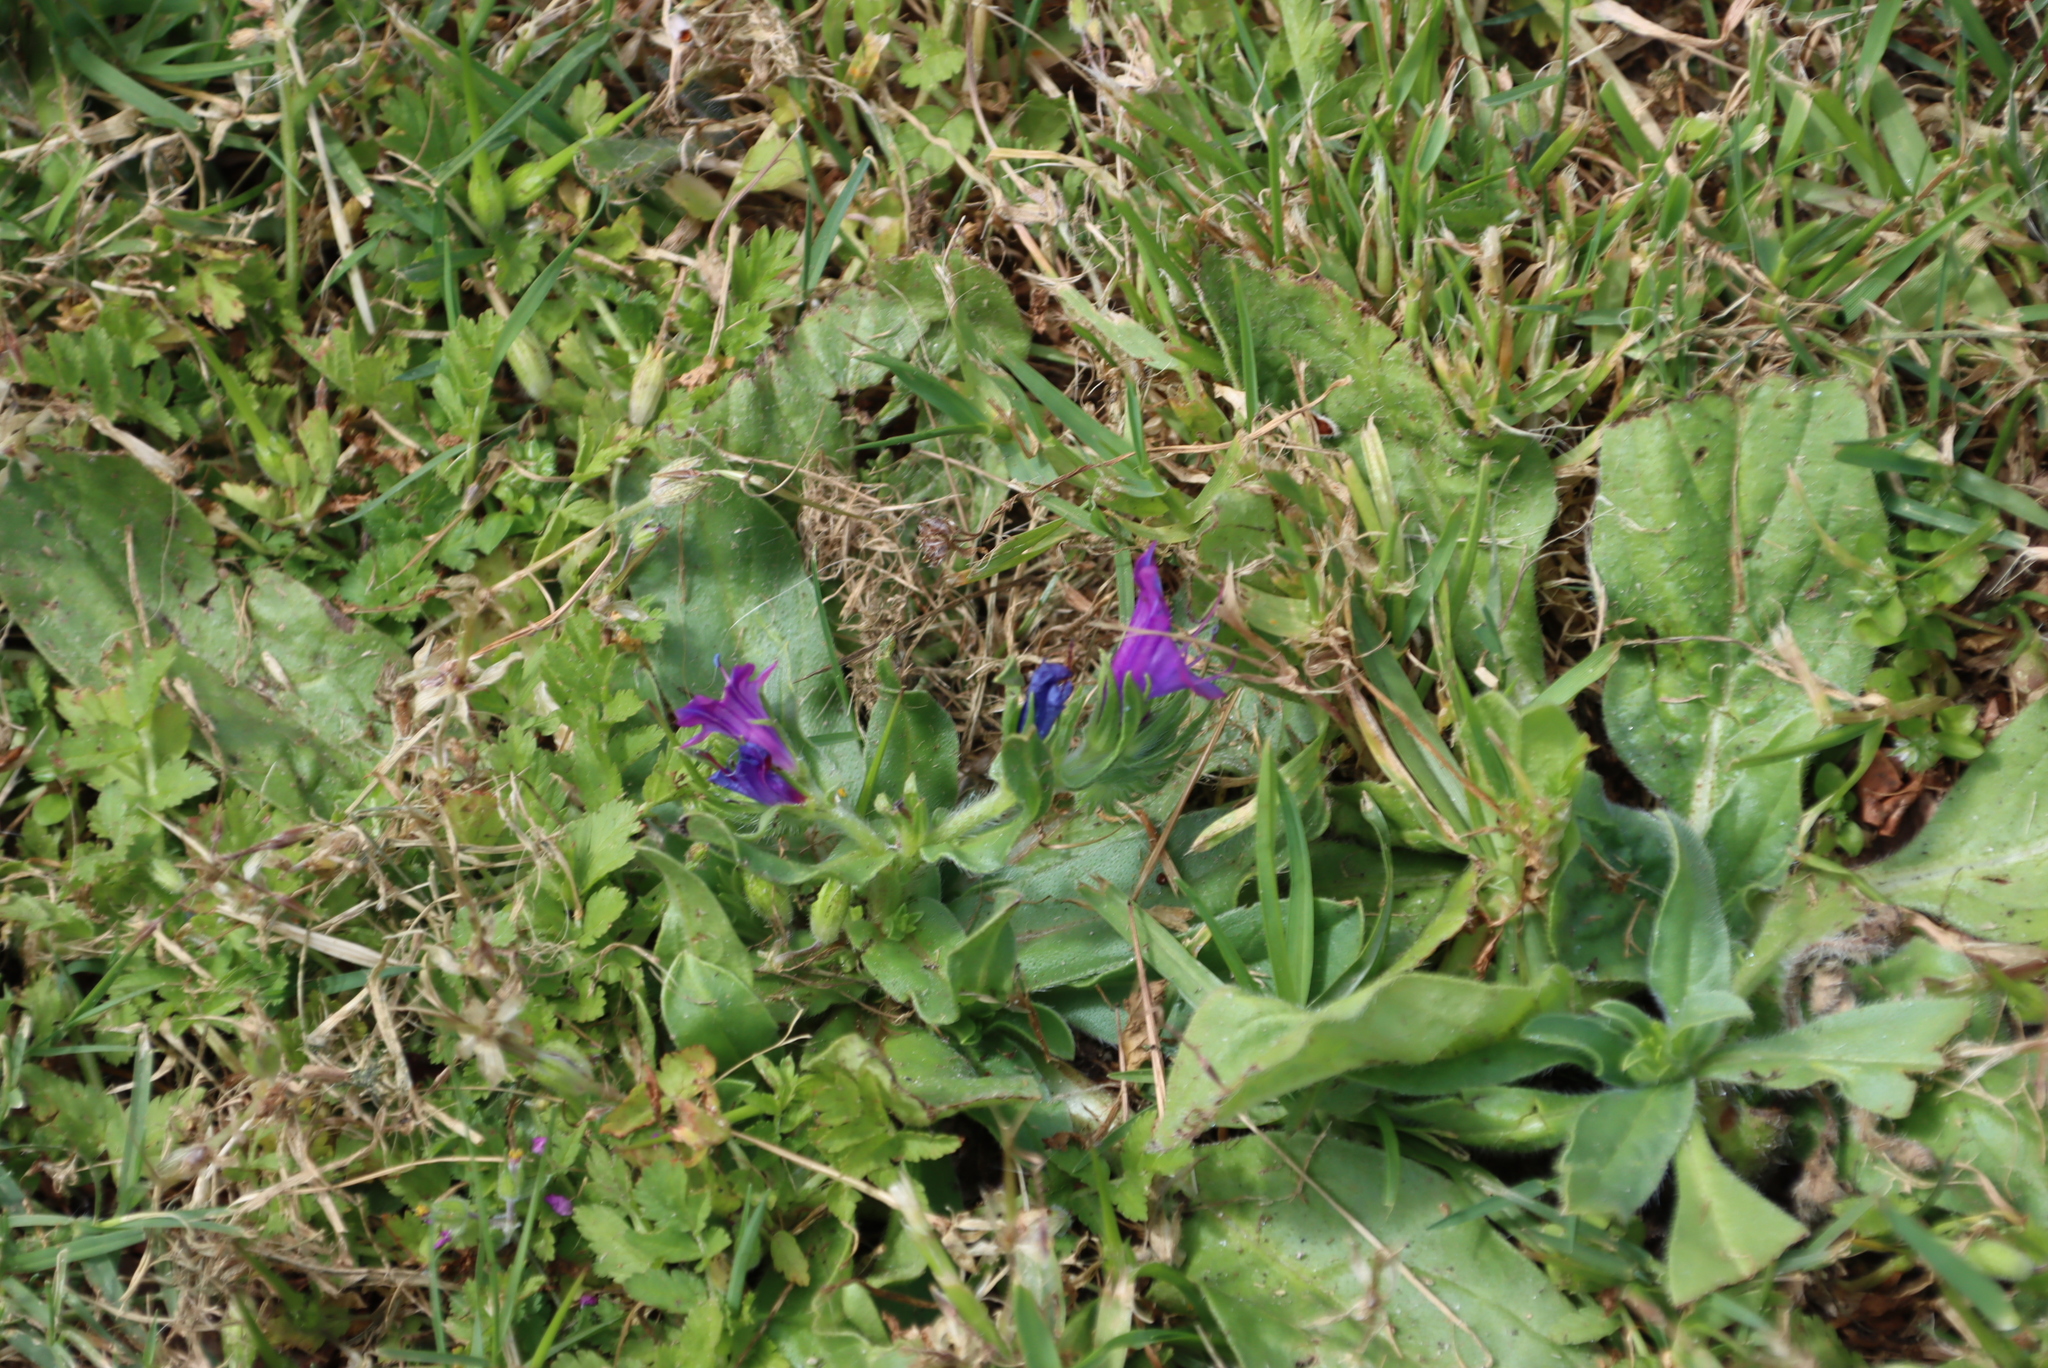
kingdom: Plantae
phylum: Tracheophyta
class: Magnoliopsida
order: Boraginales
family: Boraginaceae
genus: Echium
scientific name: Echium plantagineum
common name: Purple viper's-bugloss
